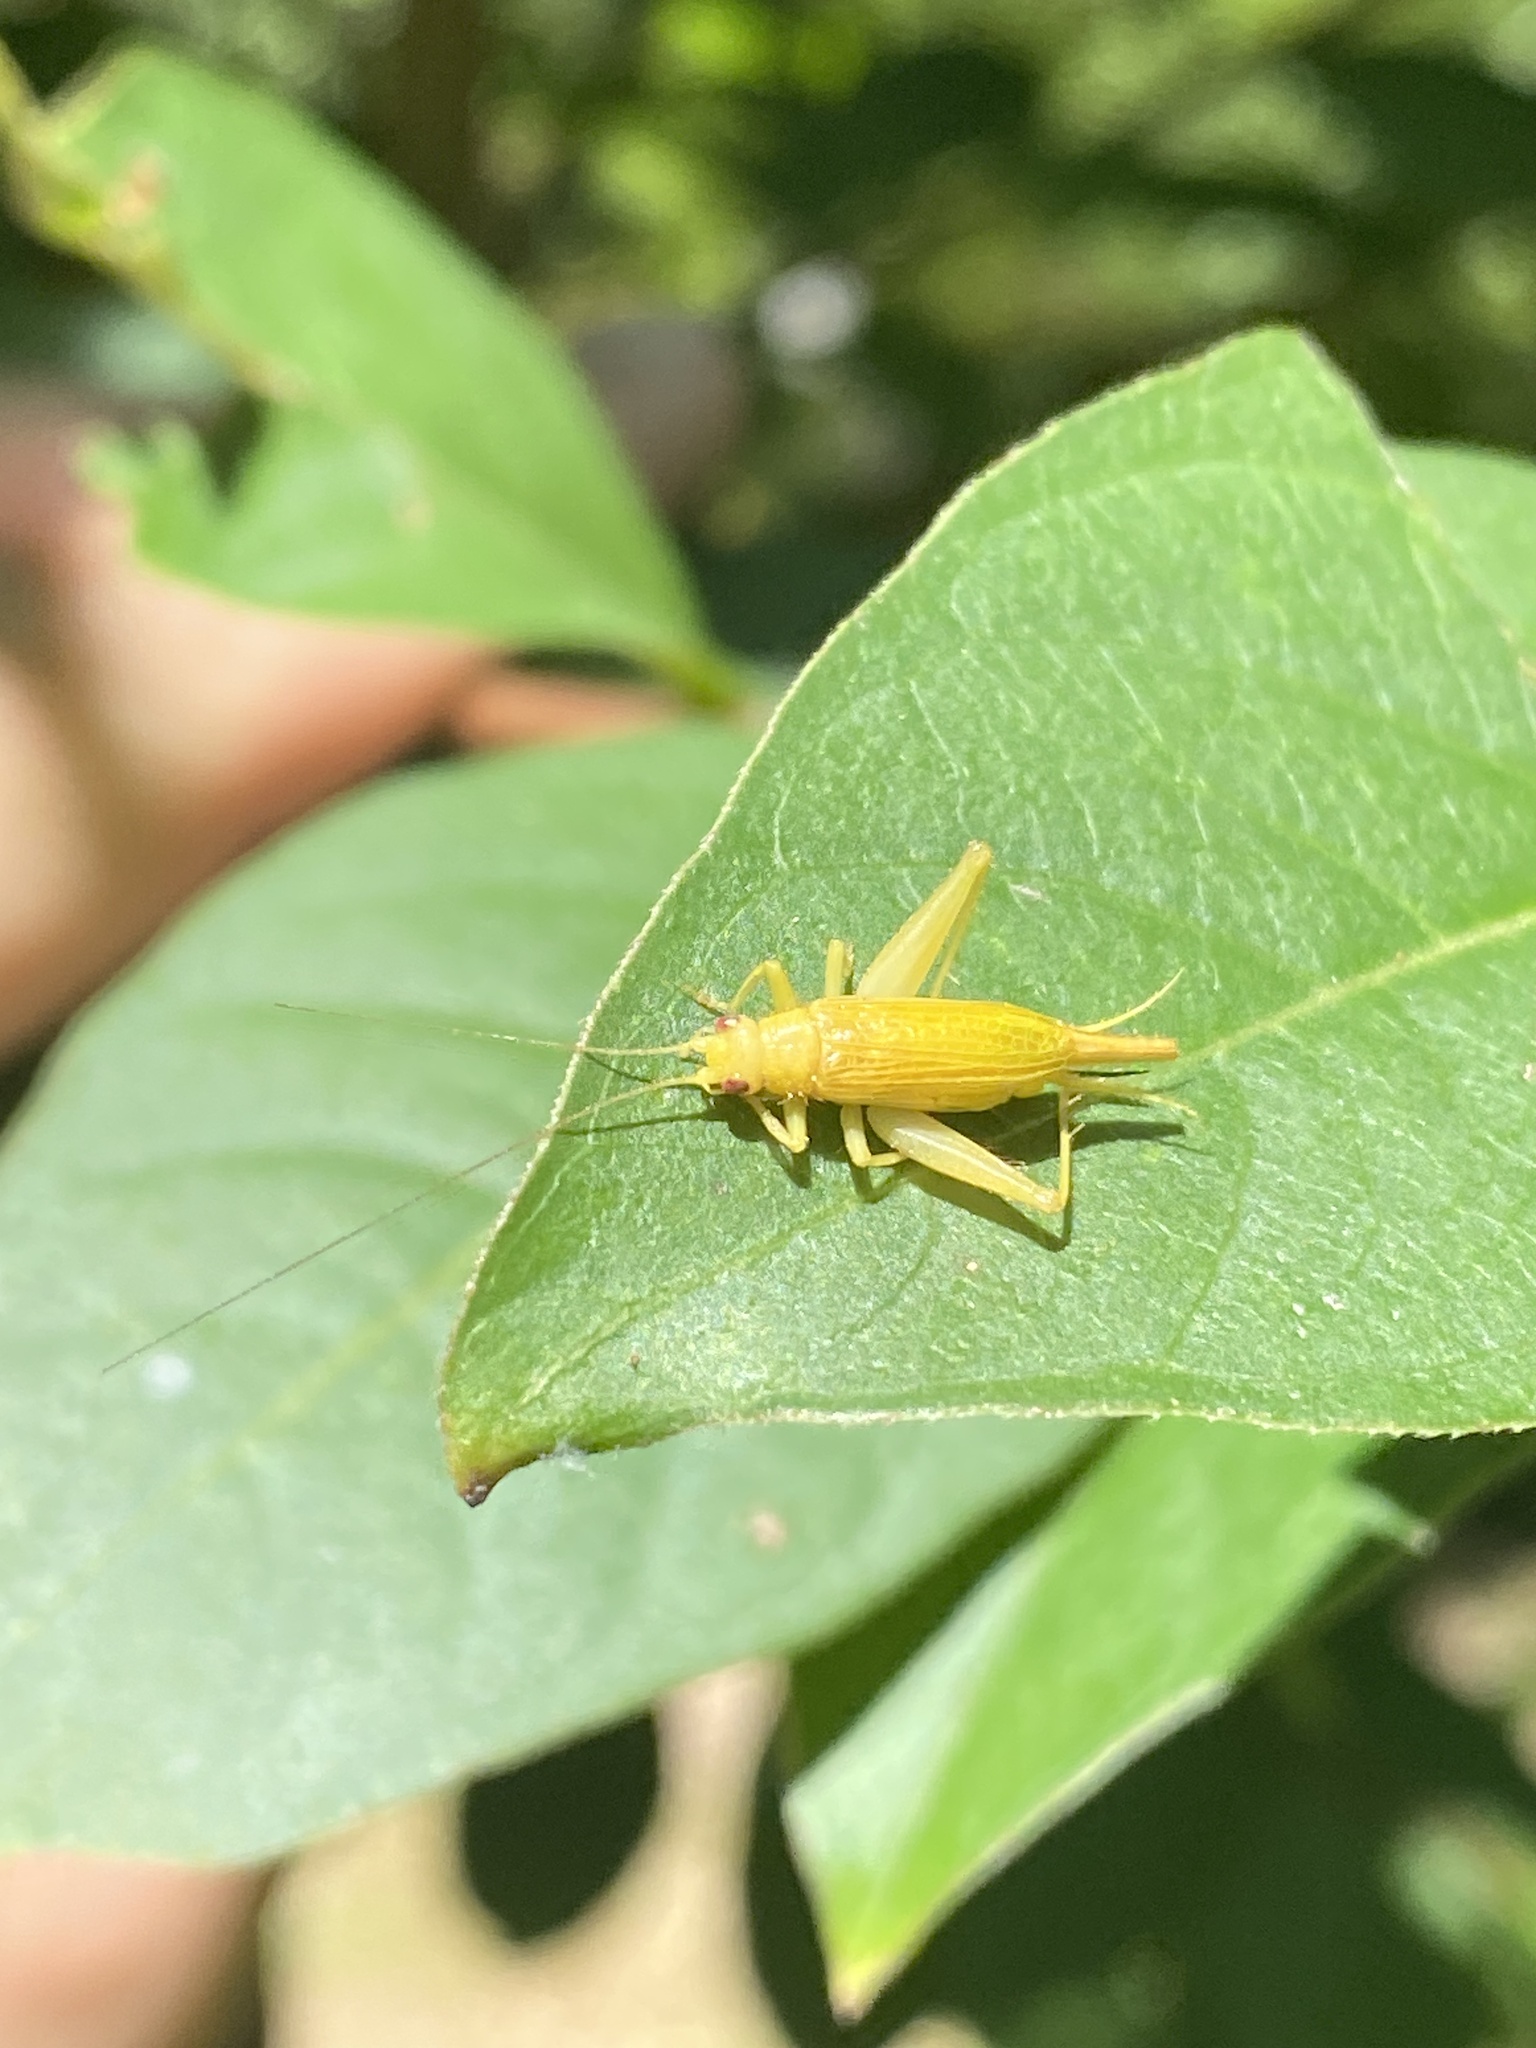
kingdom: Animalia
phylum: Arthropoda
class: Insecta
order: Orthoptera
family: Trigonidiidae
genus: Cyrtoxipha
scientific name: Cyrtoxipha columbiana
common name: Columbian trig
